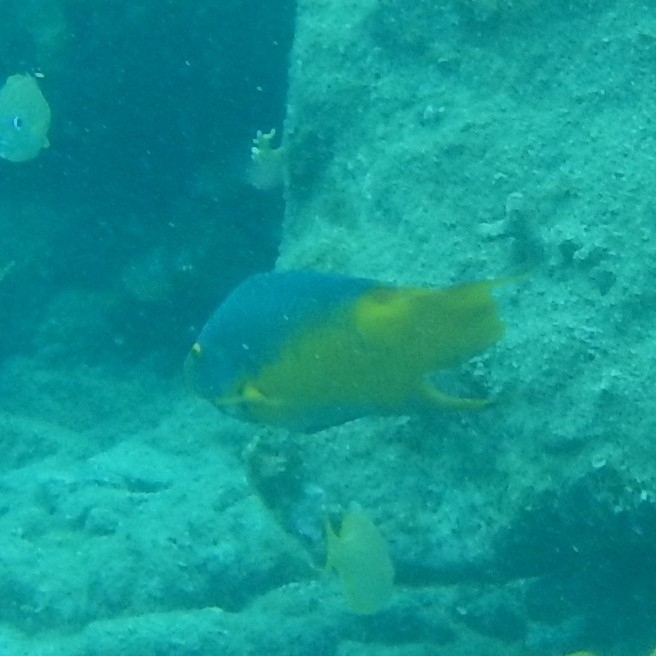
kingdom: Animalia
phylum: Chordata
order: Perciformes
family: Labridae
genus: Bodianus
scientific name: Bodianus rufus
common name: Spanish hogfish
